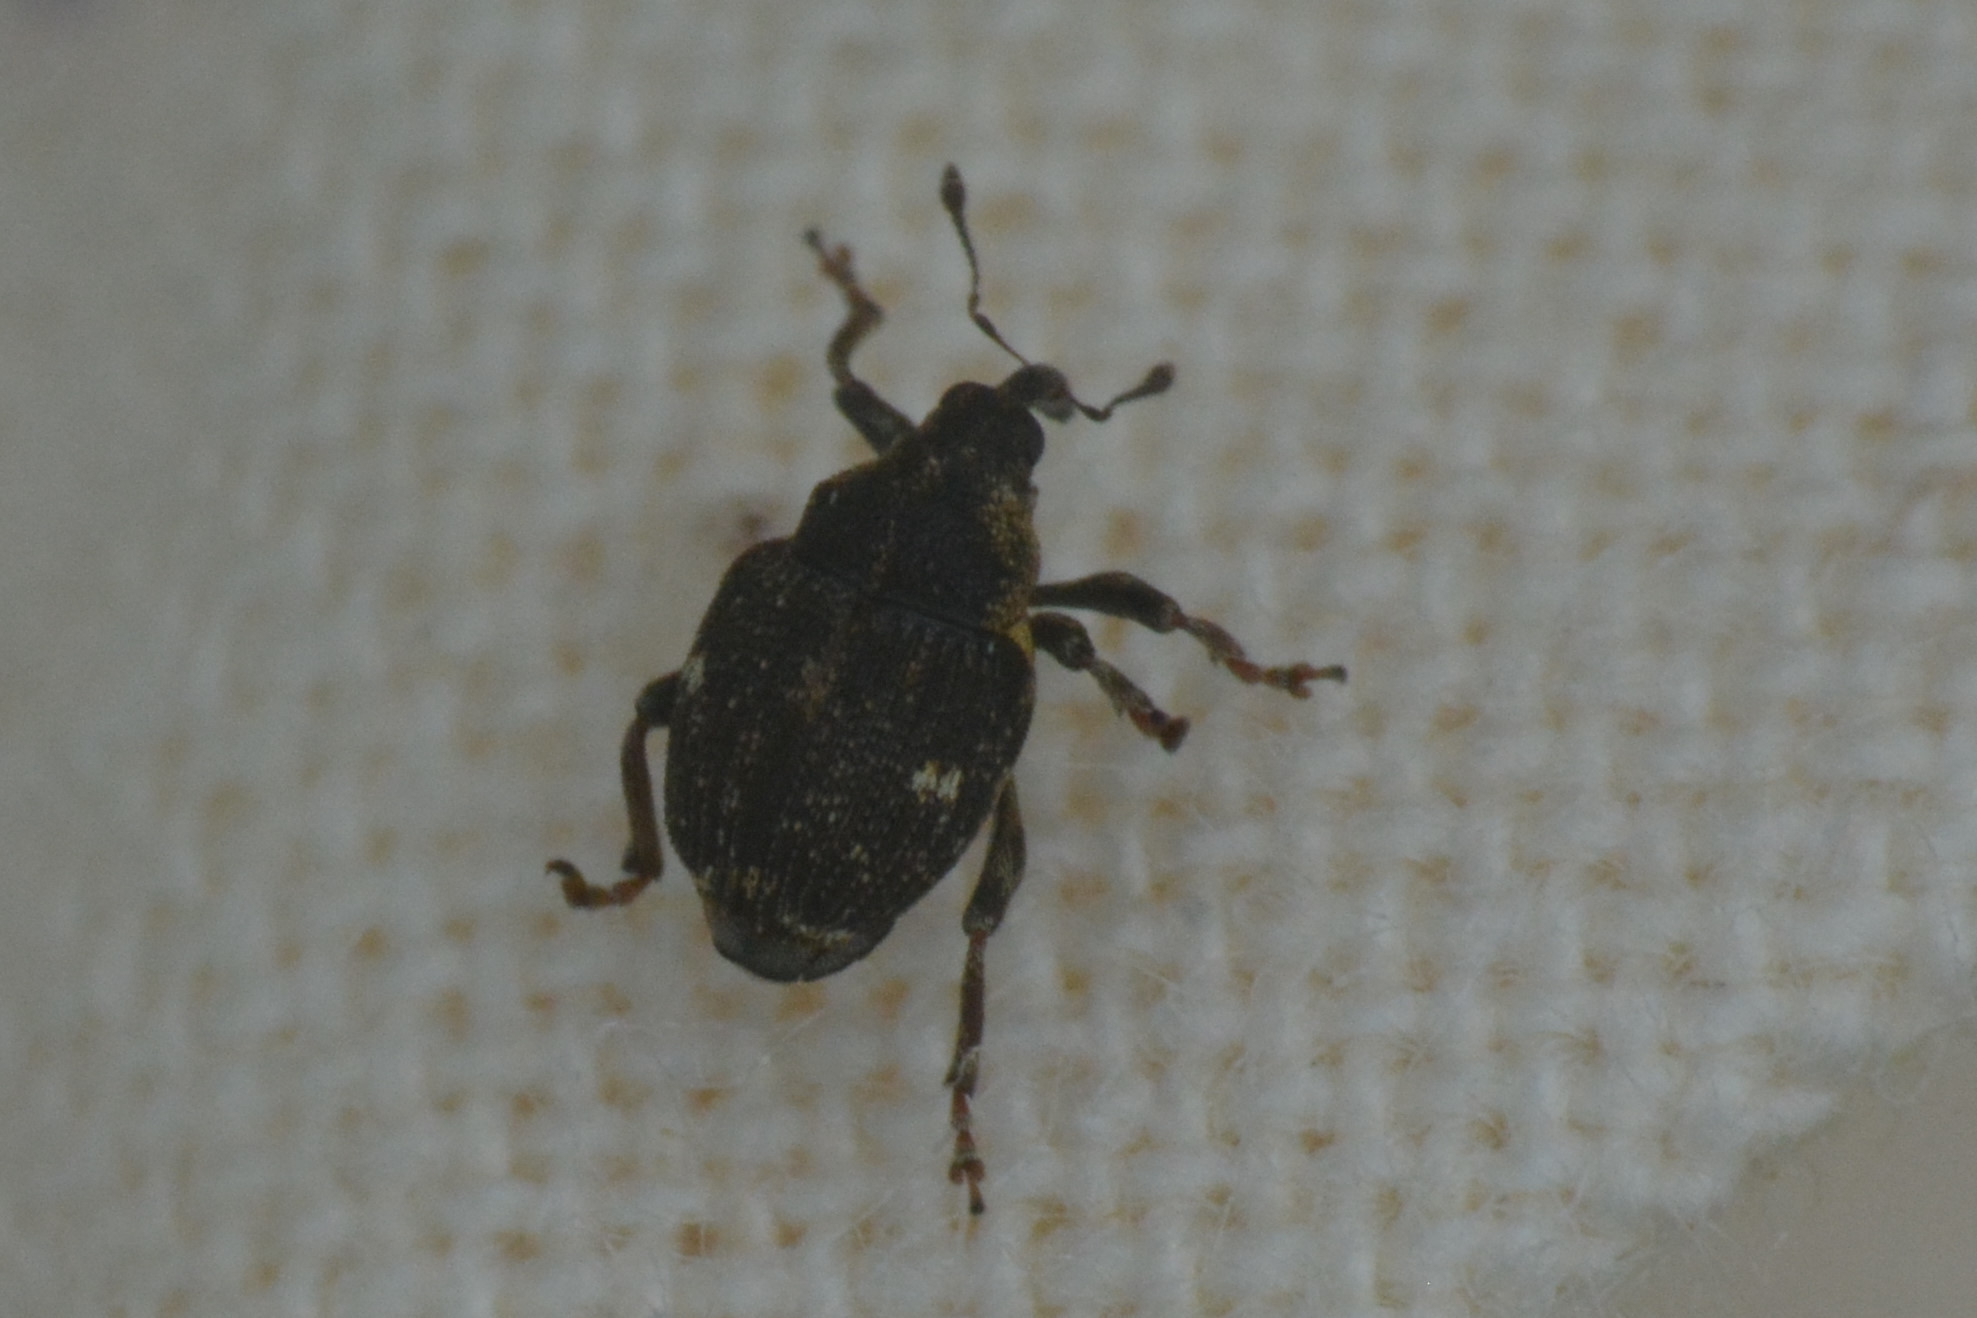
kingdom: Animalia
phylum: Arthropoda
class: Insecta
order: Coleoptera
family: Curculionidae
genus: Nedyus
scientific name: Nedyus quadrimaculatus
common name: Small nettle weevil
